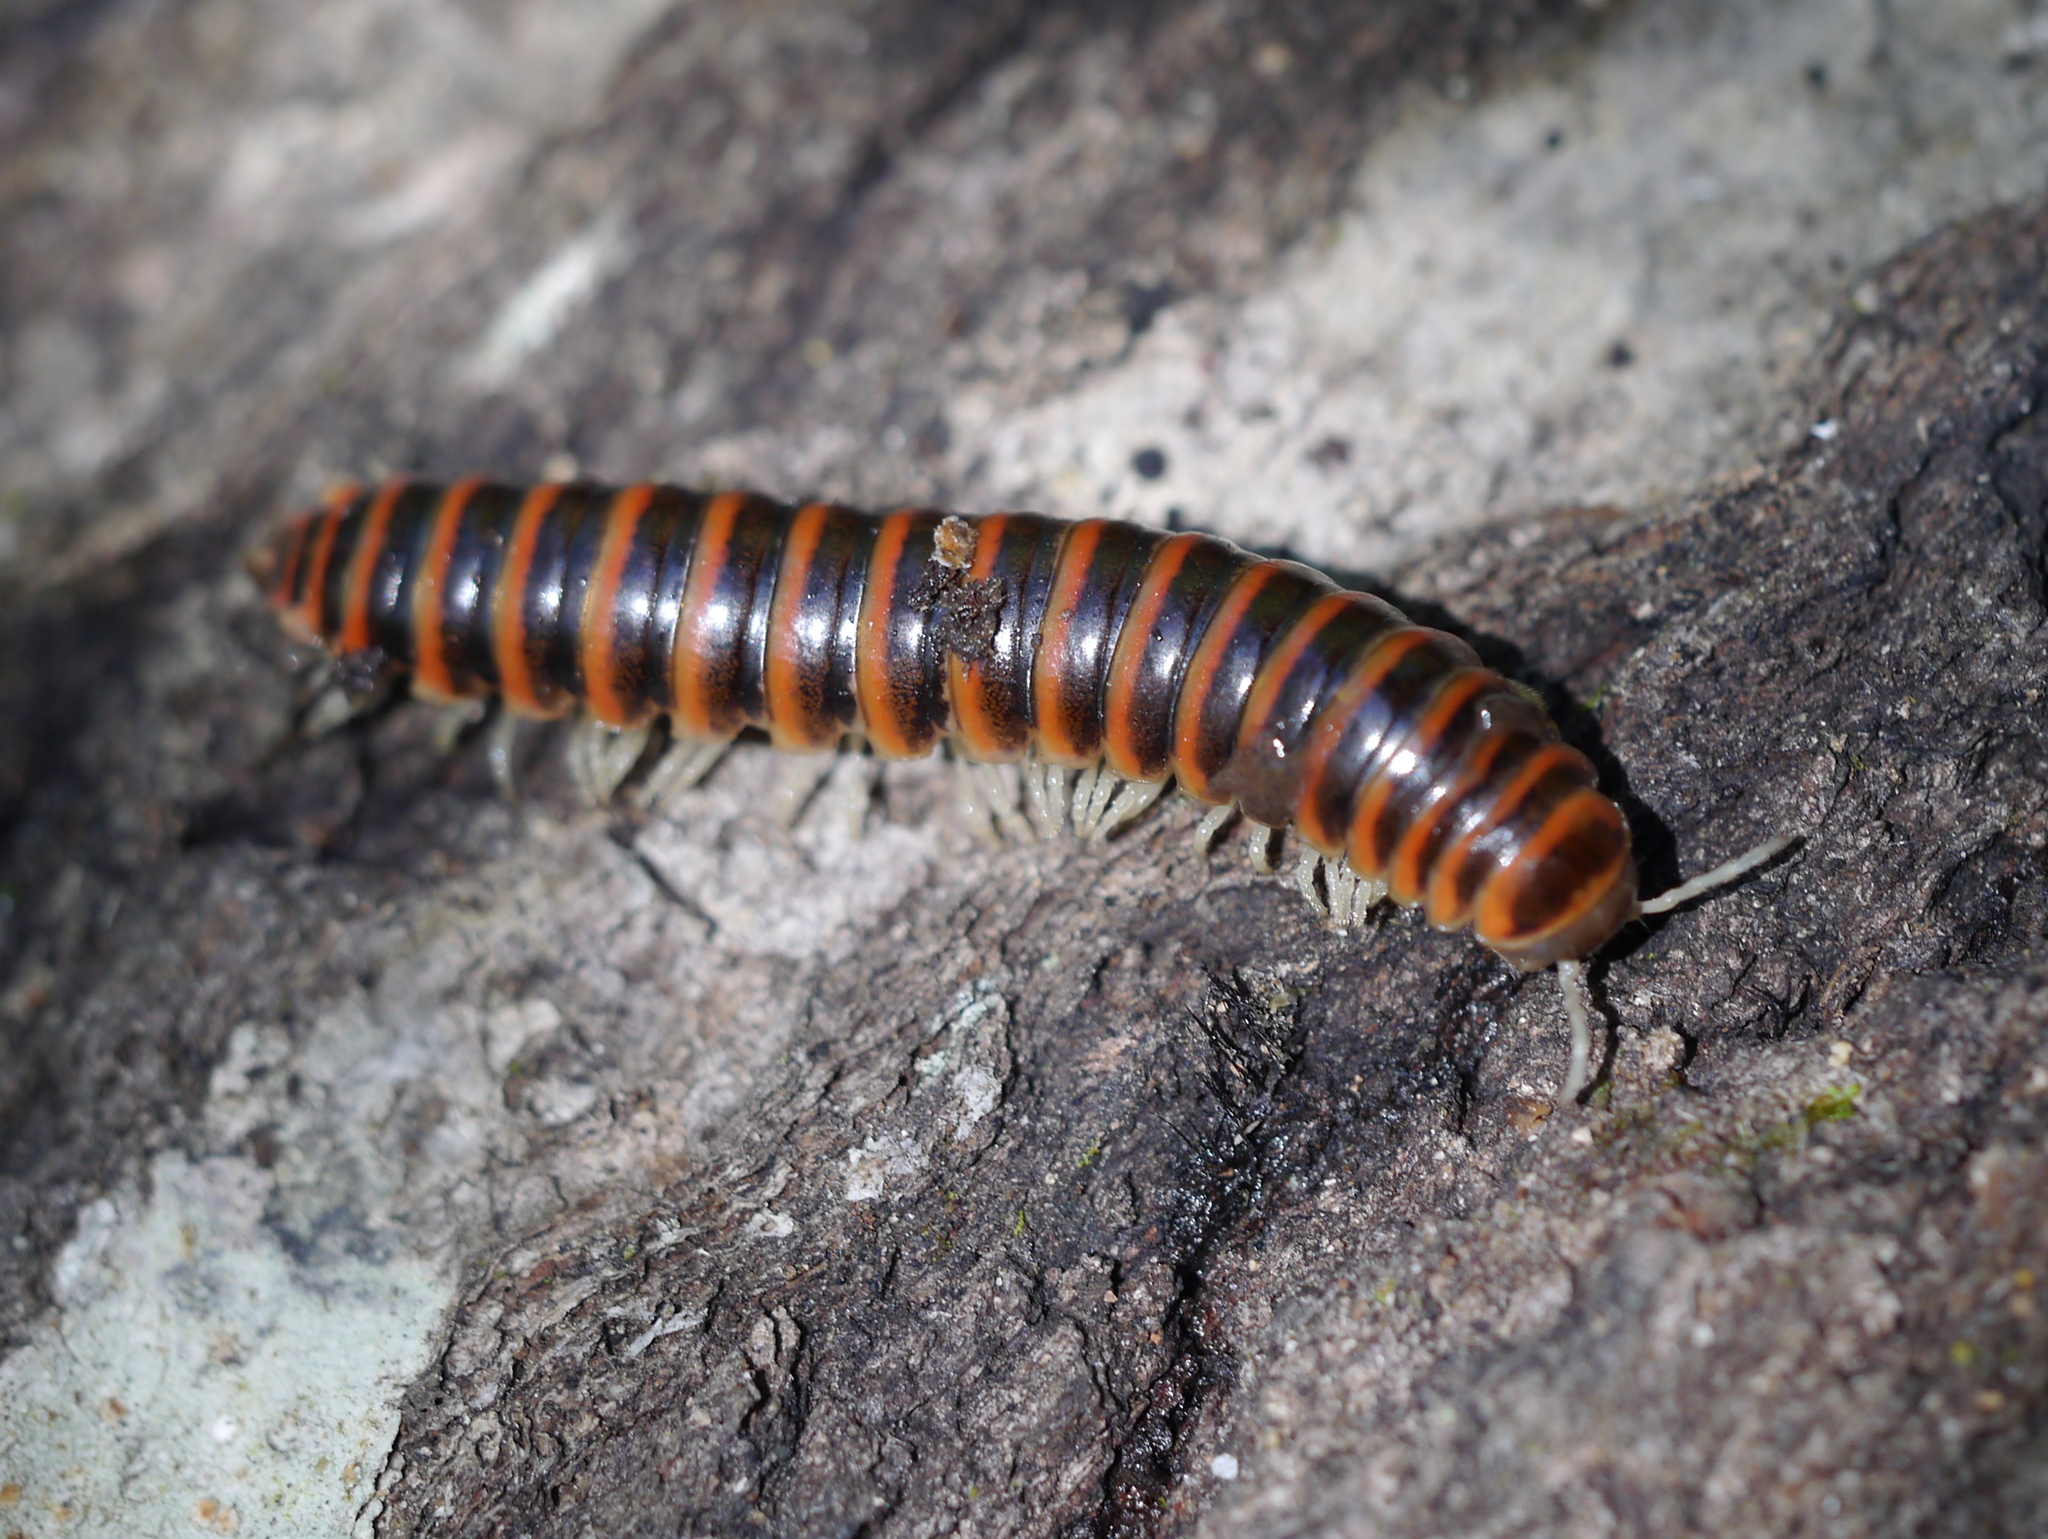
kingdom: Animalia
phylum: Arthropoda
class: Diplopoda
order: Polydesmida
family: Xystodesmidae
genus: Howellaria
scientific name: Howellaria deturkiana
